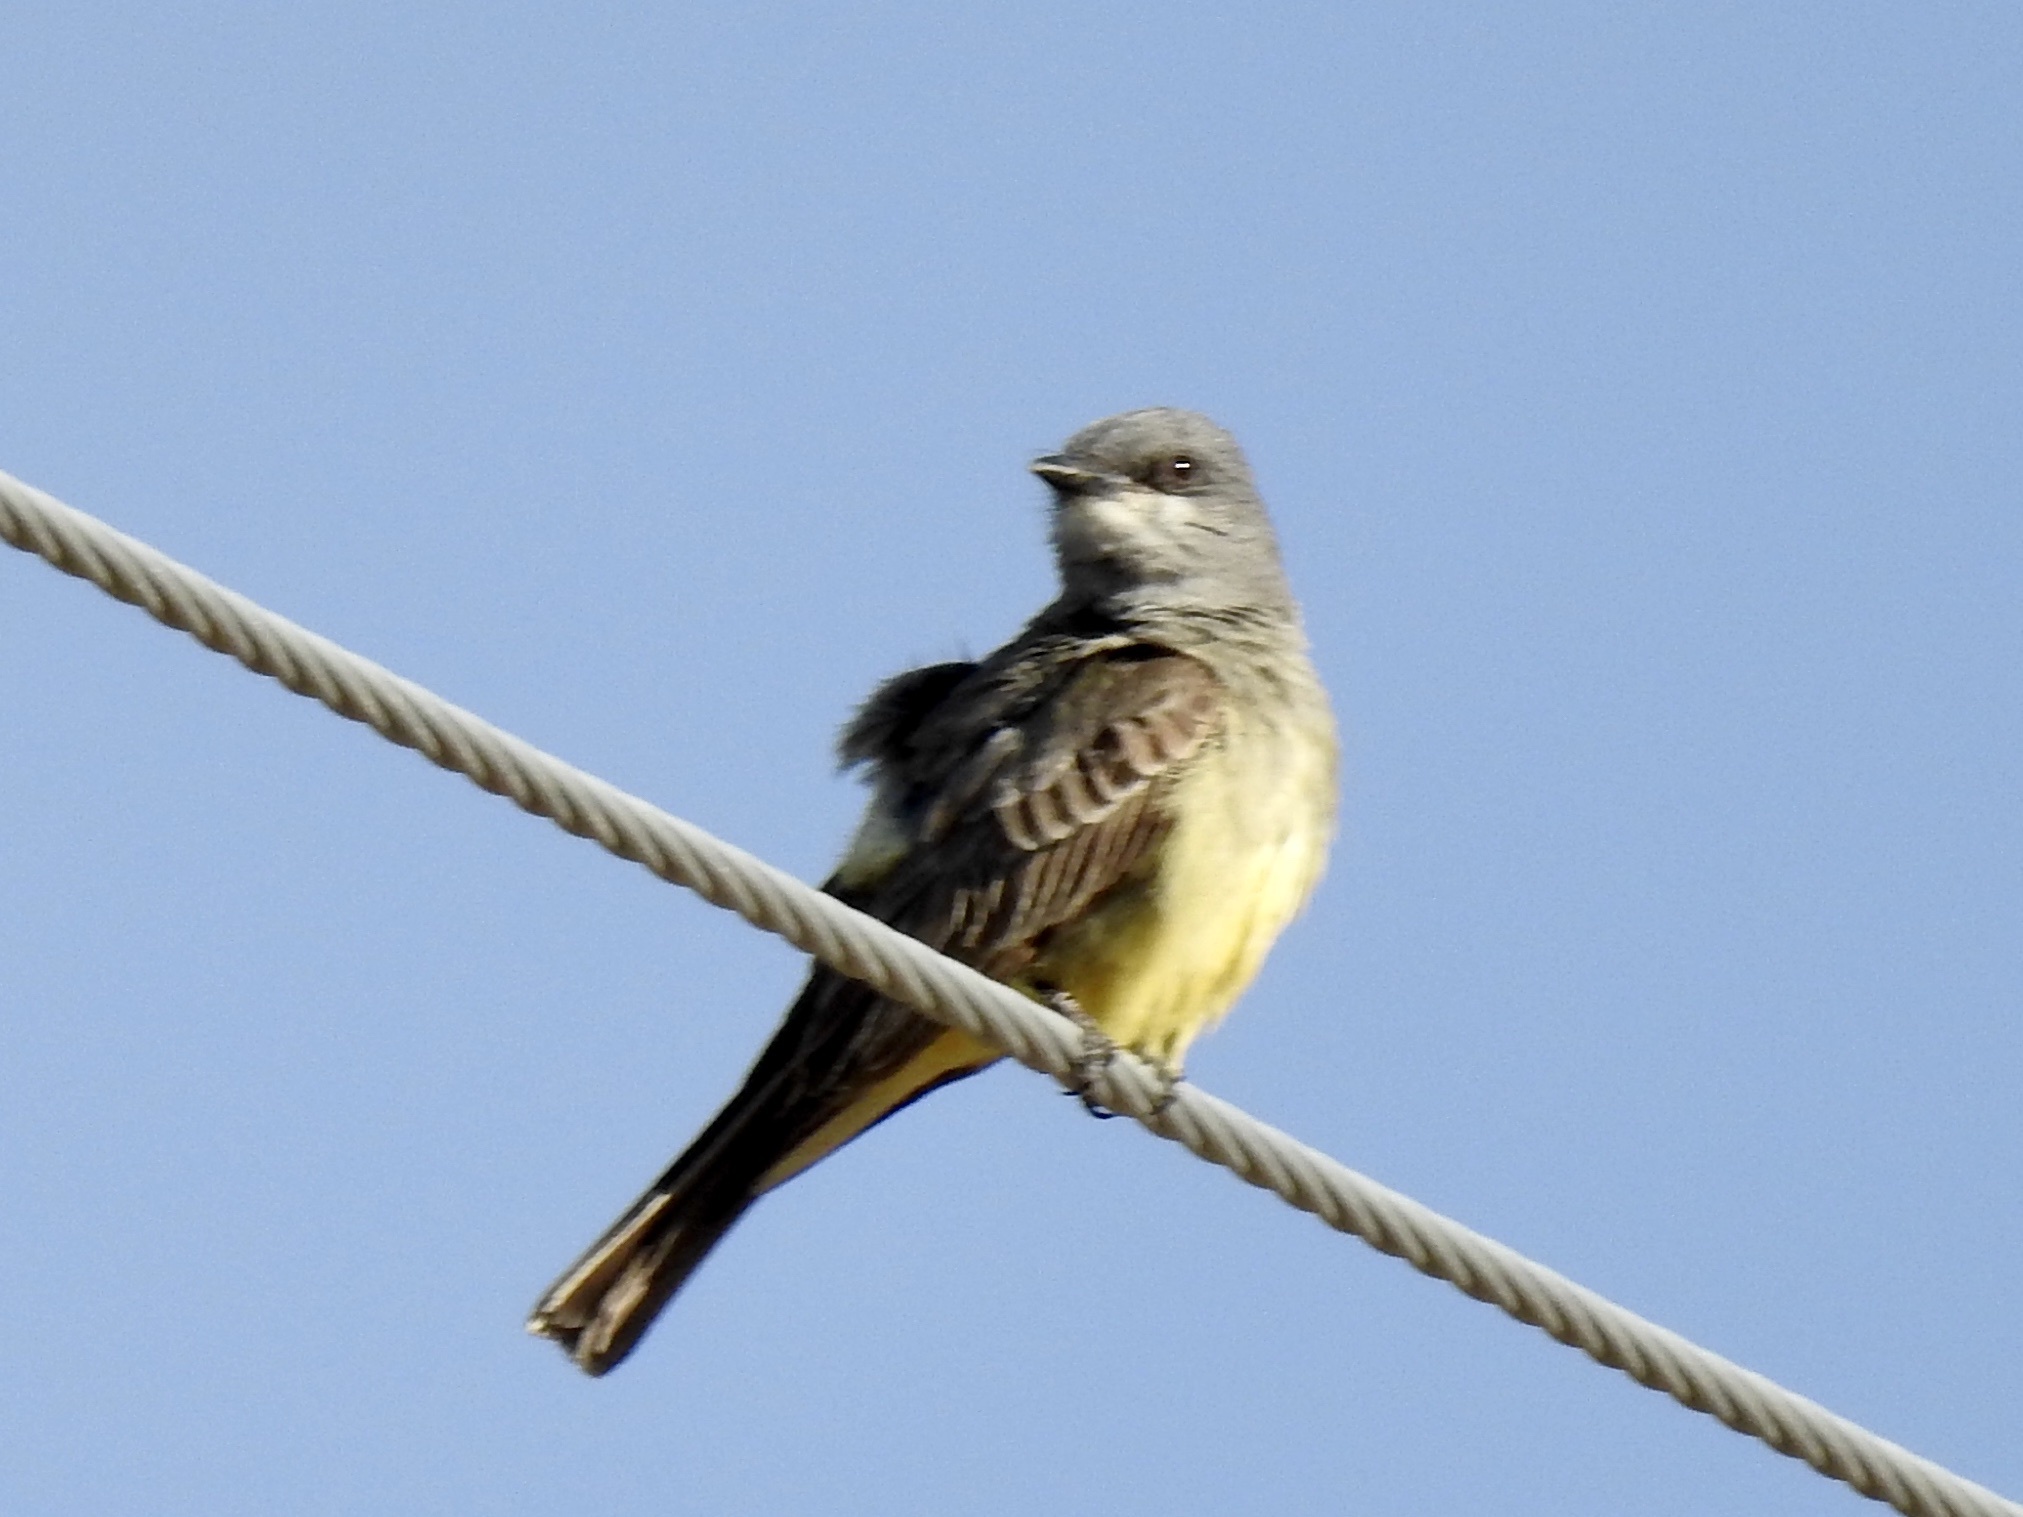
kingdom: Animalia
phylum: Chordata
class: Aves
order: Passeriformes
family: Tyrannidae
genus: Tyrannus
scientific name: Tyrannus vociferans
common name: Cassin's kingbird
